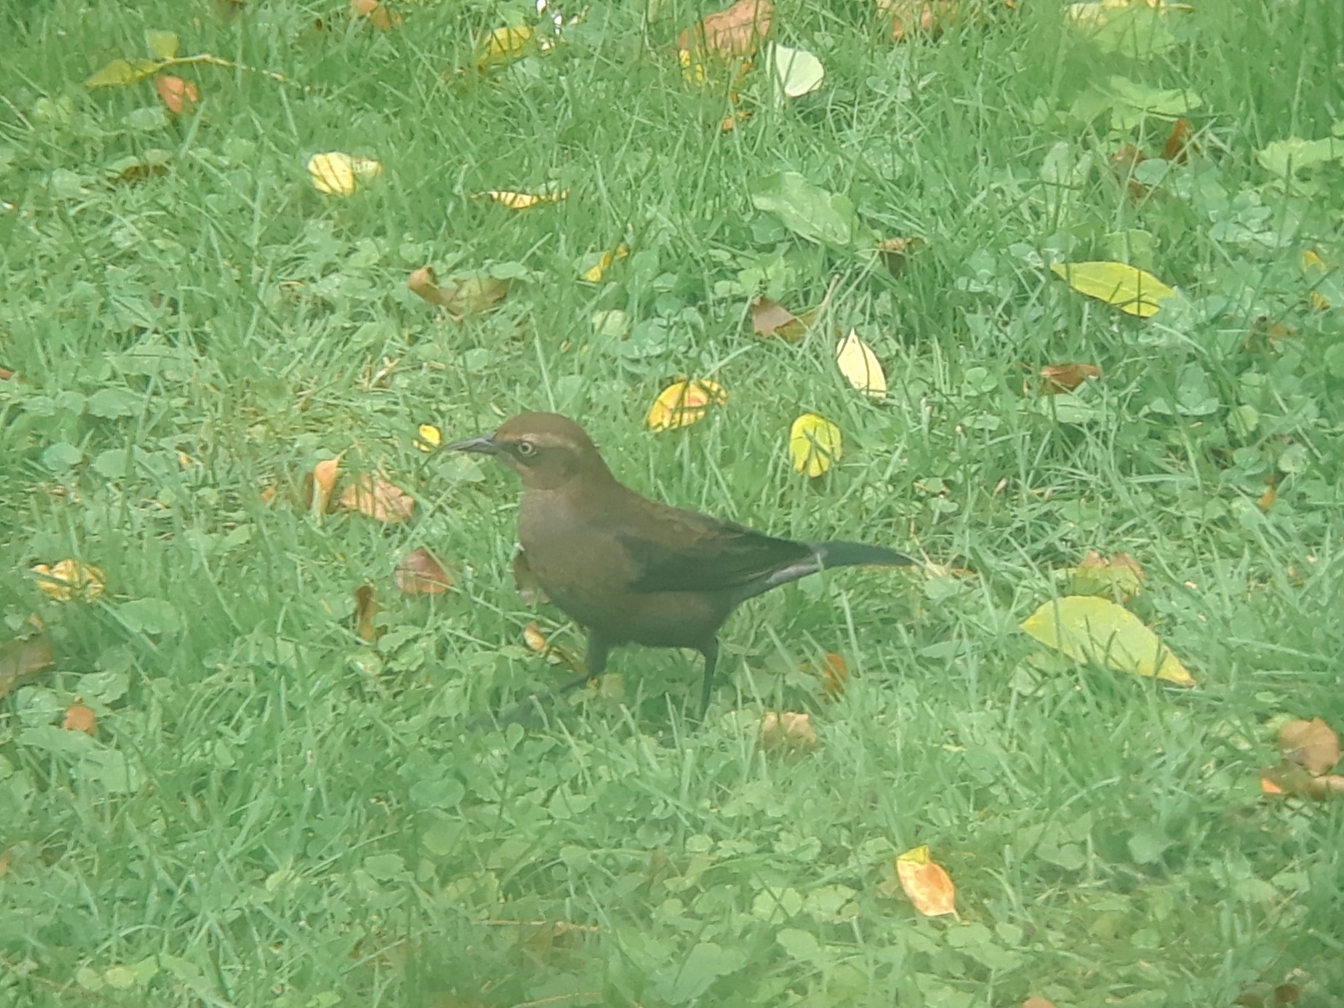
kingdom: Animalia
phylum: Chordata
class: Aves
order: Passeriformes
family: Icteridae
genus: Euphagus
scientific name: Euphagus carolinus
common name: Rusty blackbird
